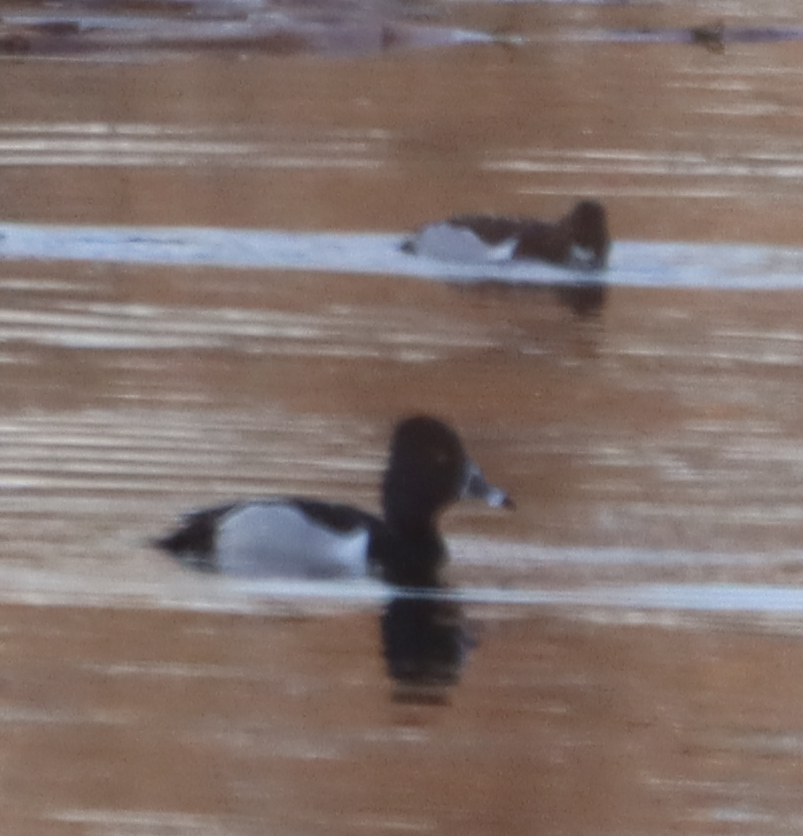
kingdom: Animalia
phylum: Chordata
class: Aves
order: Anseriformes
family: Anatidae
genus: Aythya
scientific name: Aythya collaris
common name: Ring-necked duck
